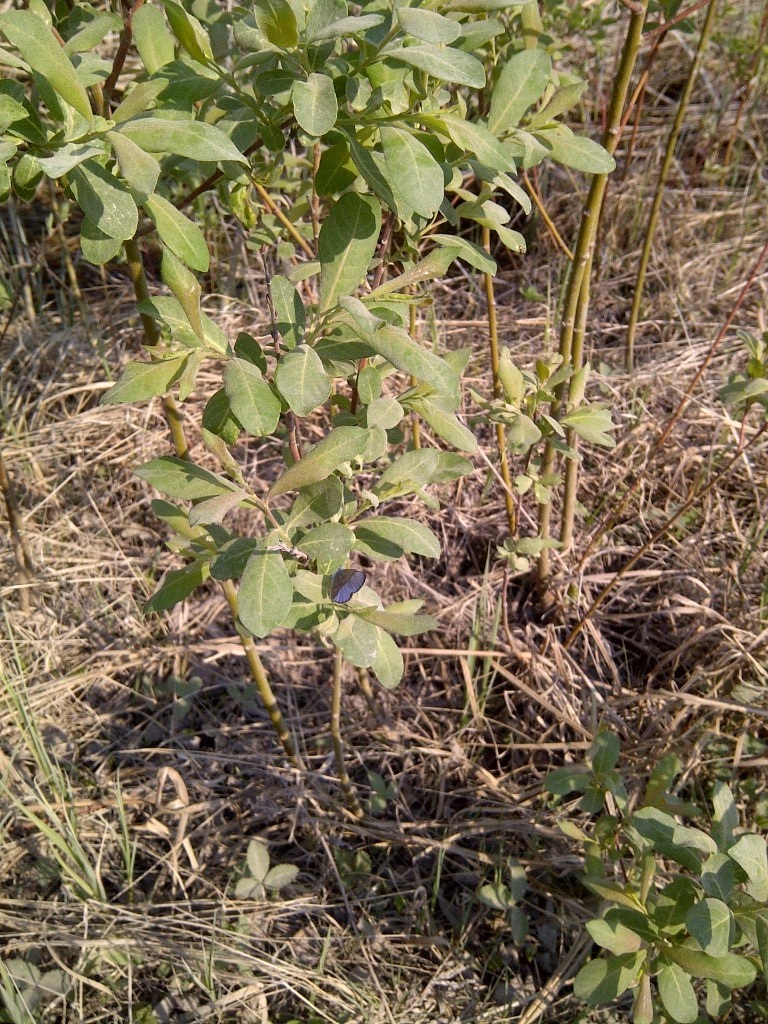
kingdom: Animalia
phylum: Arthropoda
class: Insecta
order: Lepidoptera
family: Lycaenidae
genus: Glaucopsyche
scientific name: Glaucopsyche lygdamus
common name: Silvery blue
